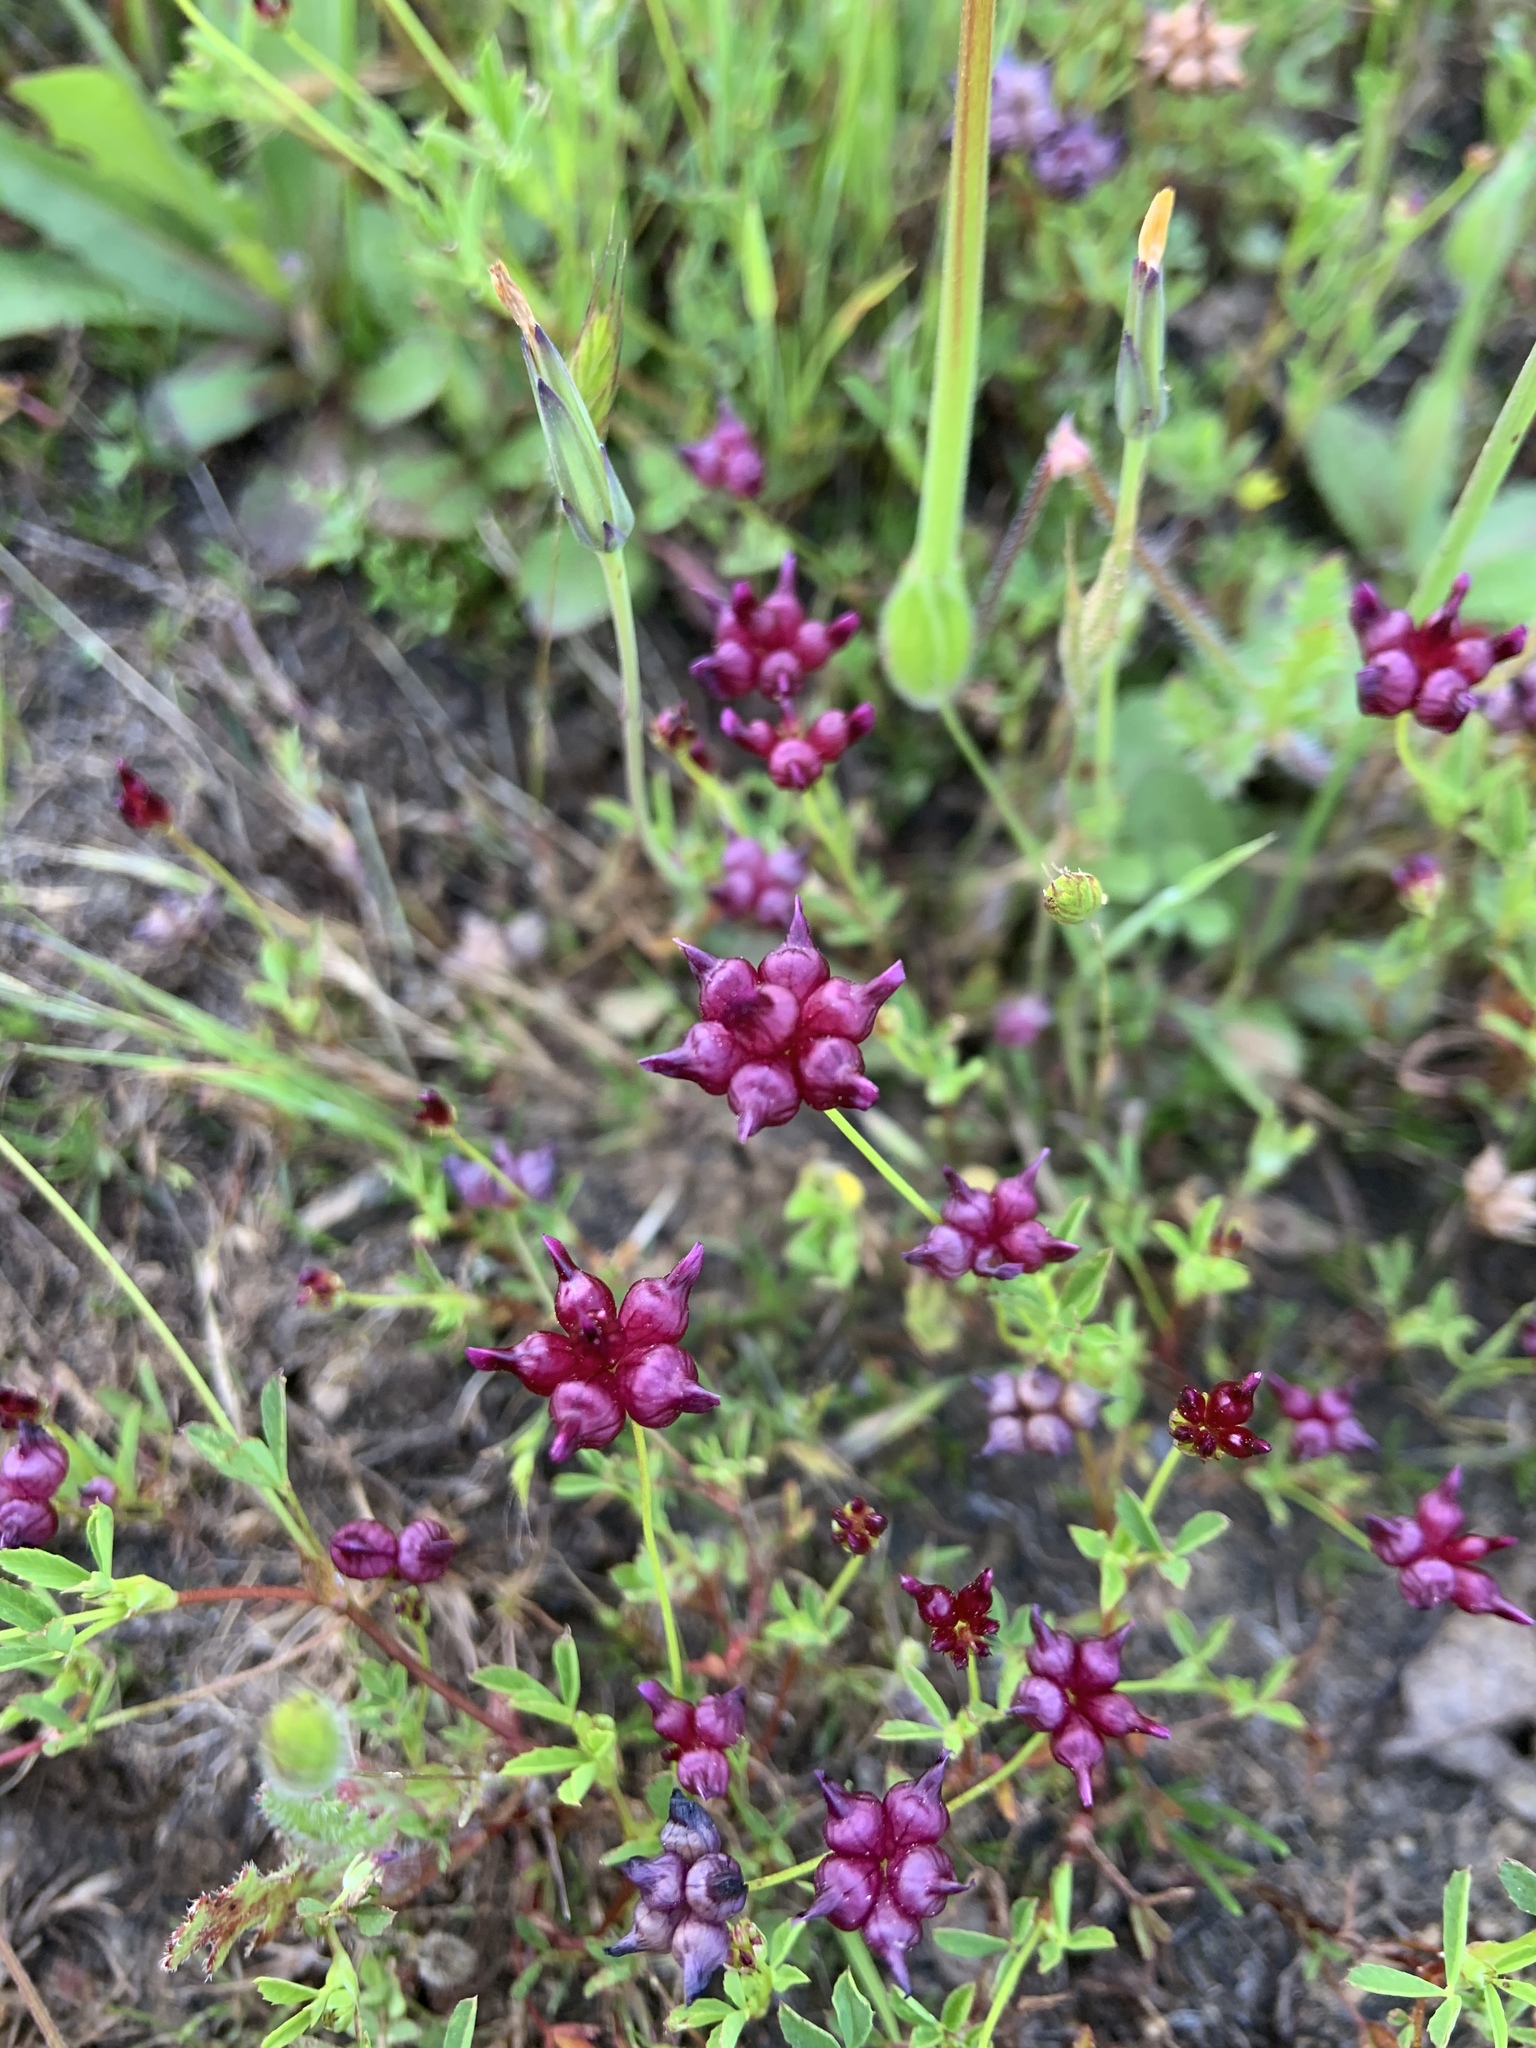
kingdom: Plantae
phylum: Tracheophyta
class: Magnoliopsida
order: Fabales
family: Fabaceae
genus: Trifolium
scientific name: Trifolium depauperatum
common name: Poverty clover
